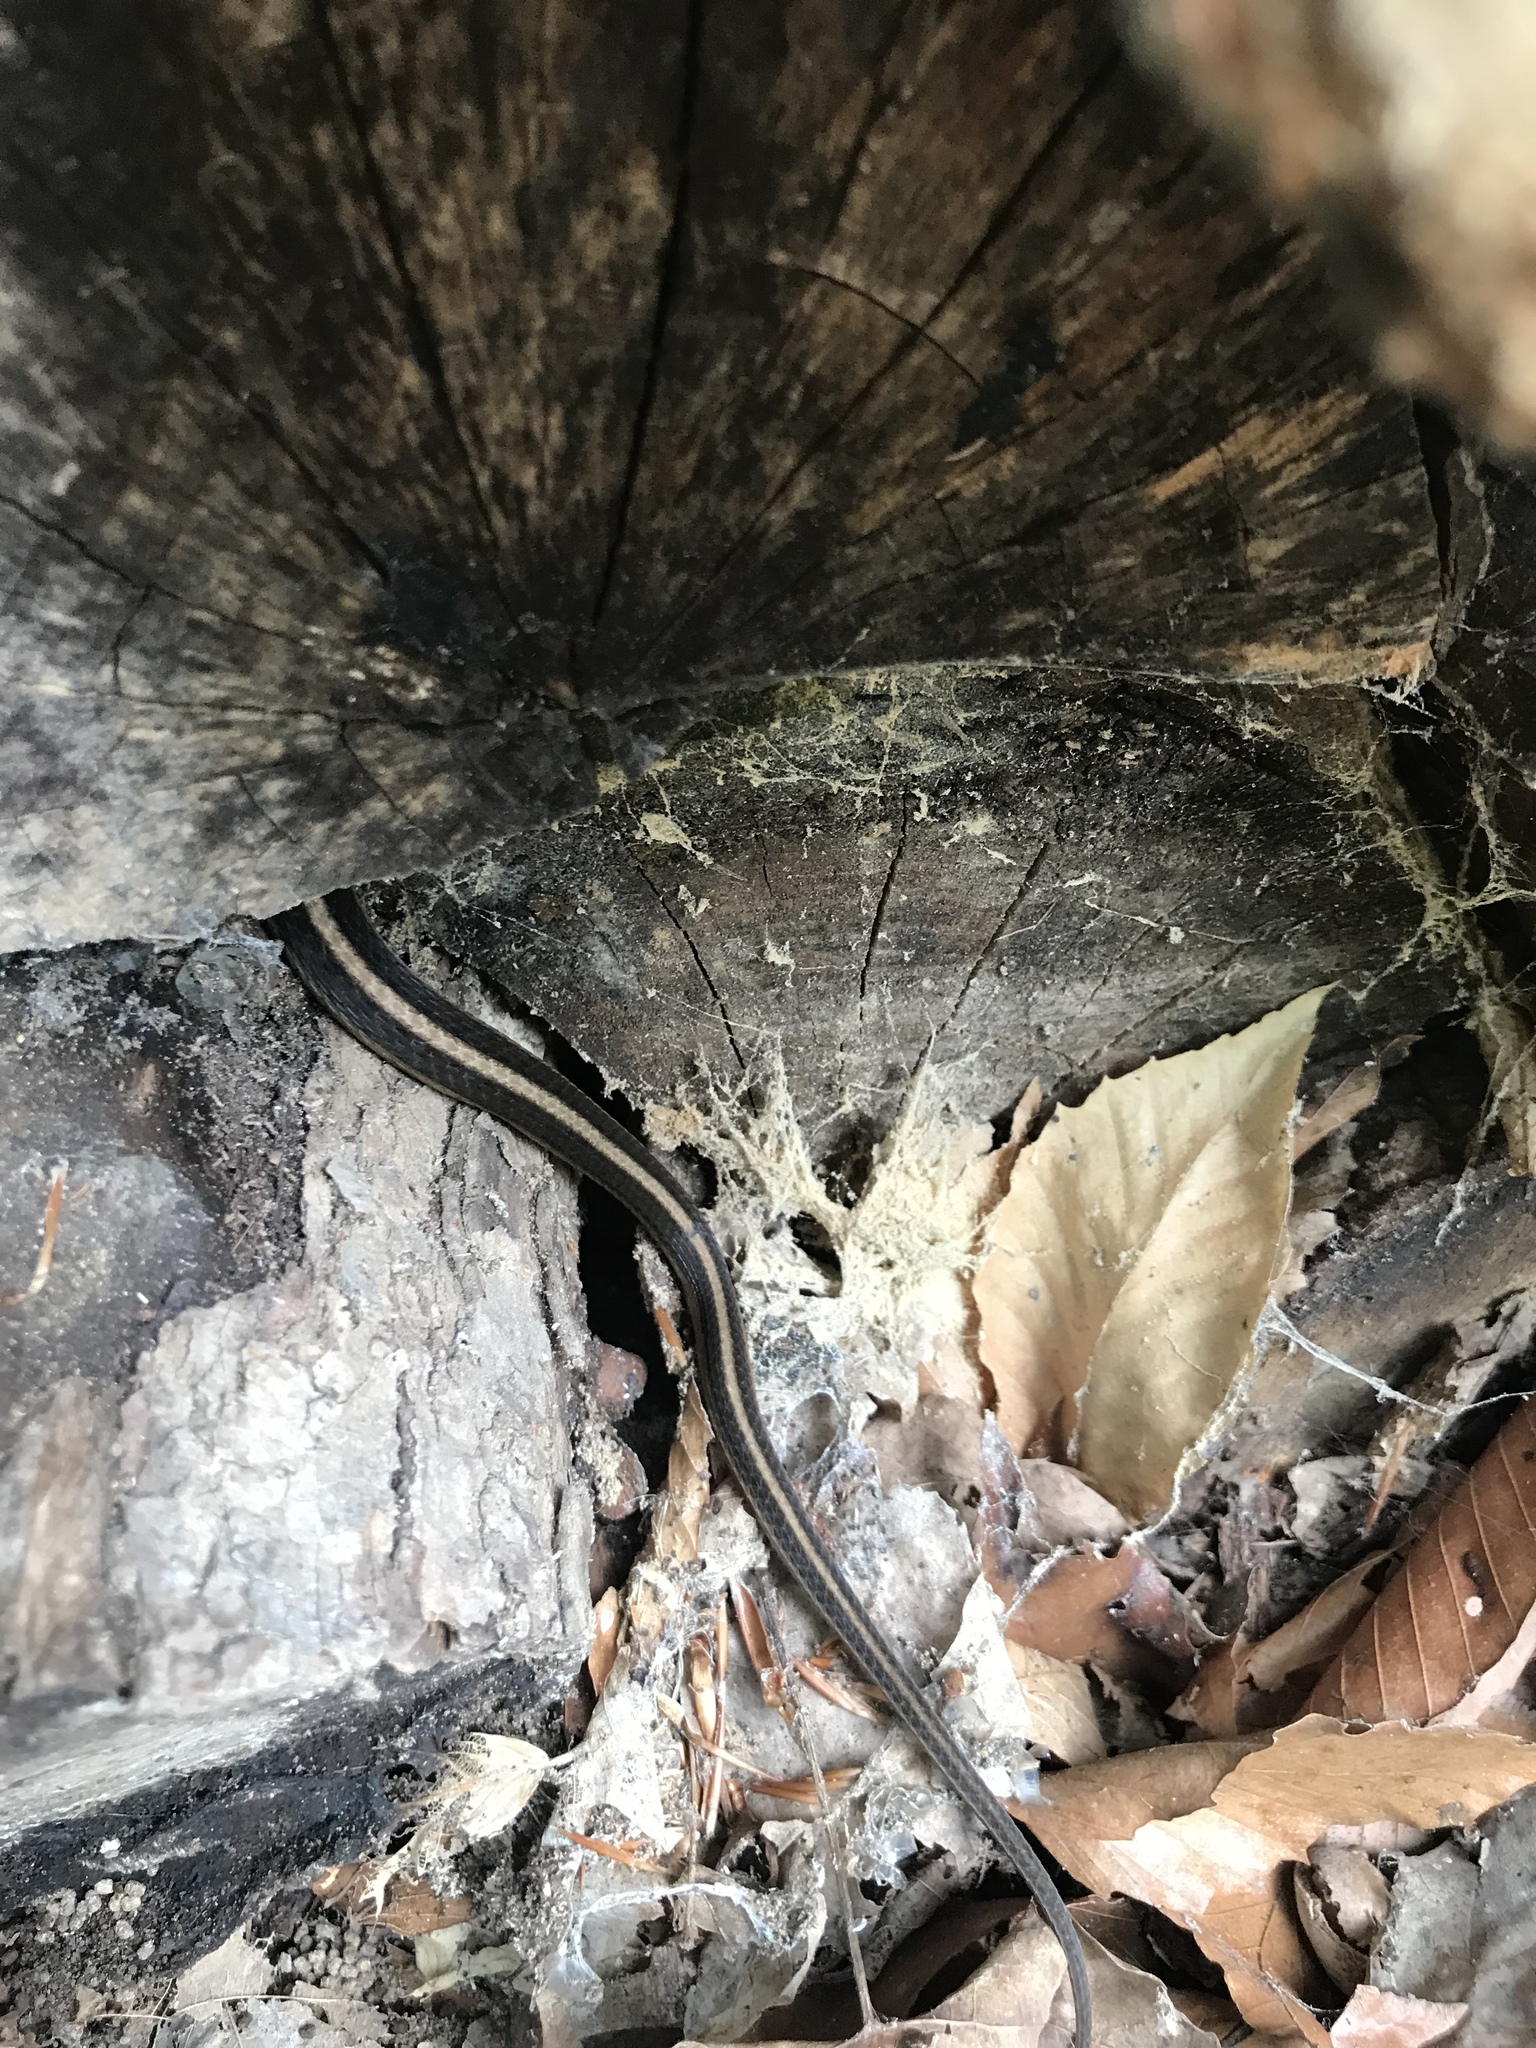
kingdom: Animalia
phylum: Chordata
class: Squamata
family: Colubridae
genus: Thamnophis
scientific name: Thamnophis sirtalis
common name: Common garter snake
